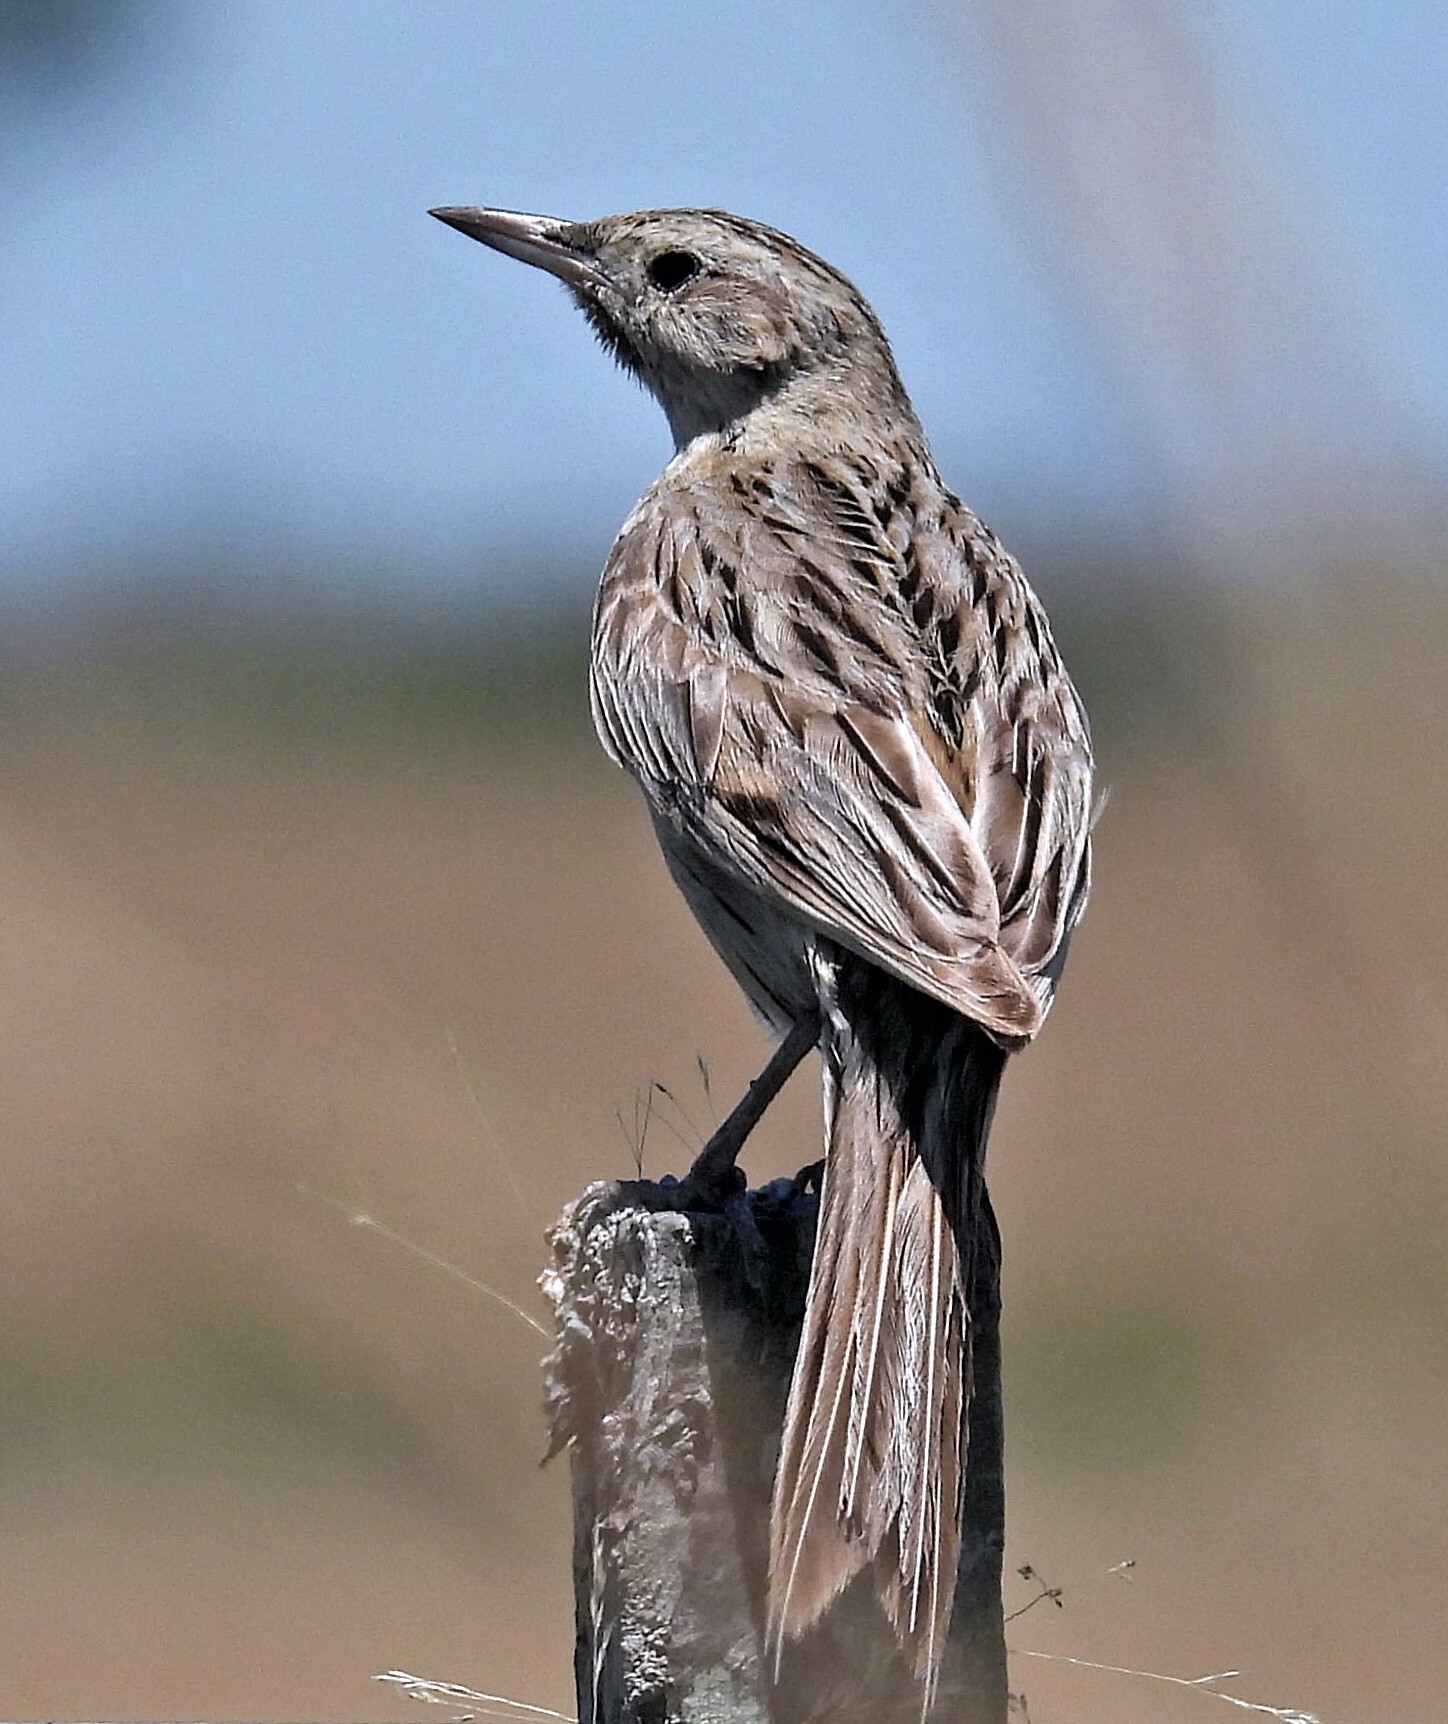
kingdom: Animalia
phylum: Chordata
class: Aves
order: Passeriformes
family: Furnariidae
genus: Asthenes
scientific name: Asthenes hudsoni
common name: Hudson's canastero
